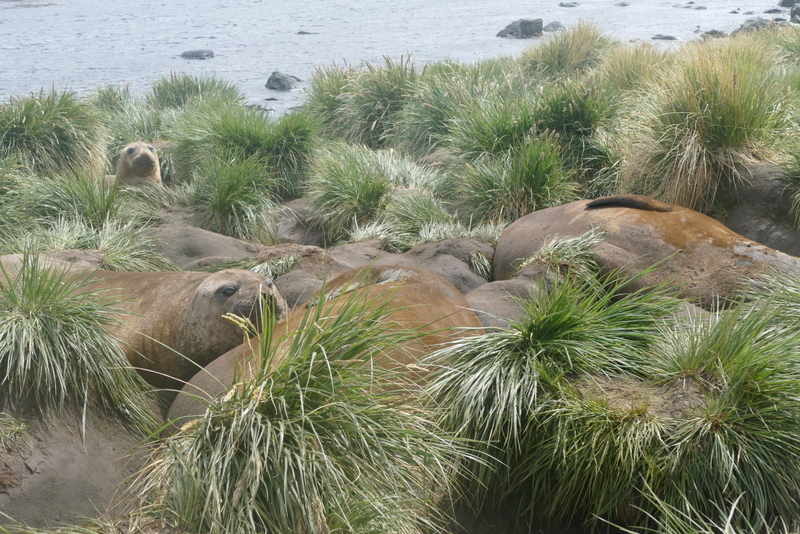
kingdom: Animalia
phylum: Chordata
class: Mammalia
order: Carnivora
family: Phocidae
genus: Mirounga
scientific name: Mirounga leonina
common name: Southern elephant seal
